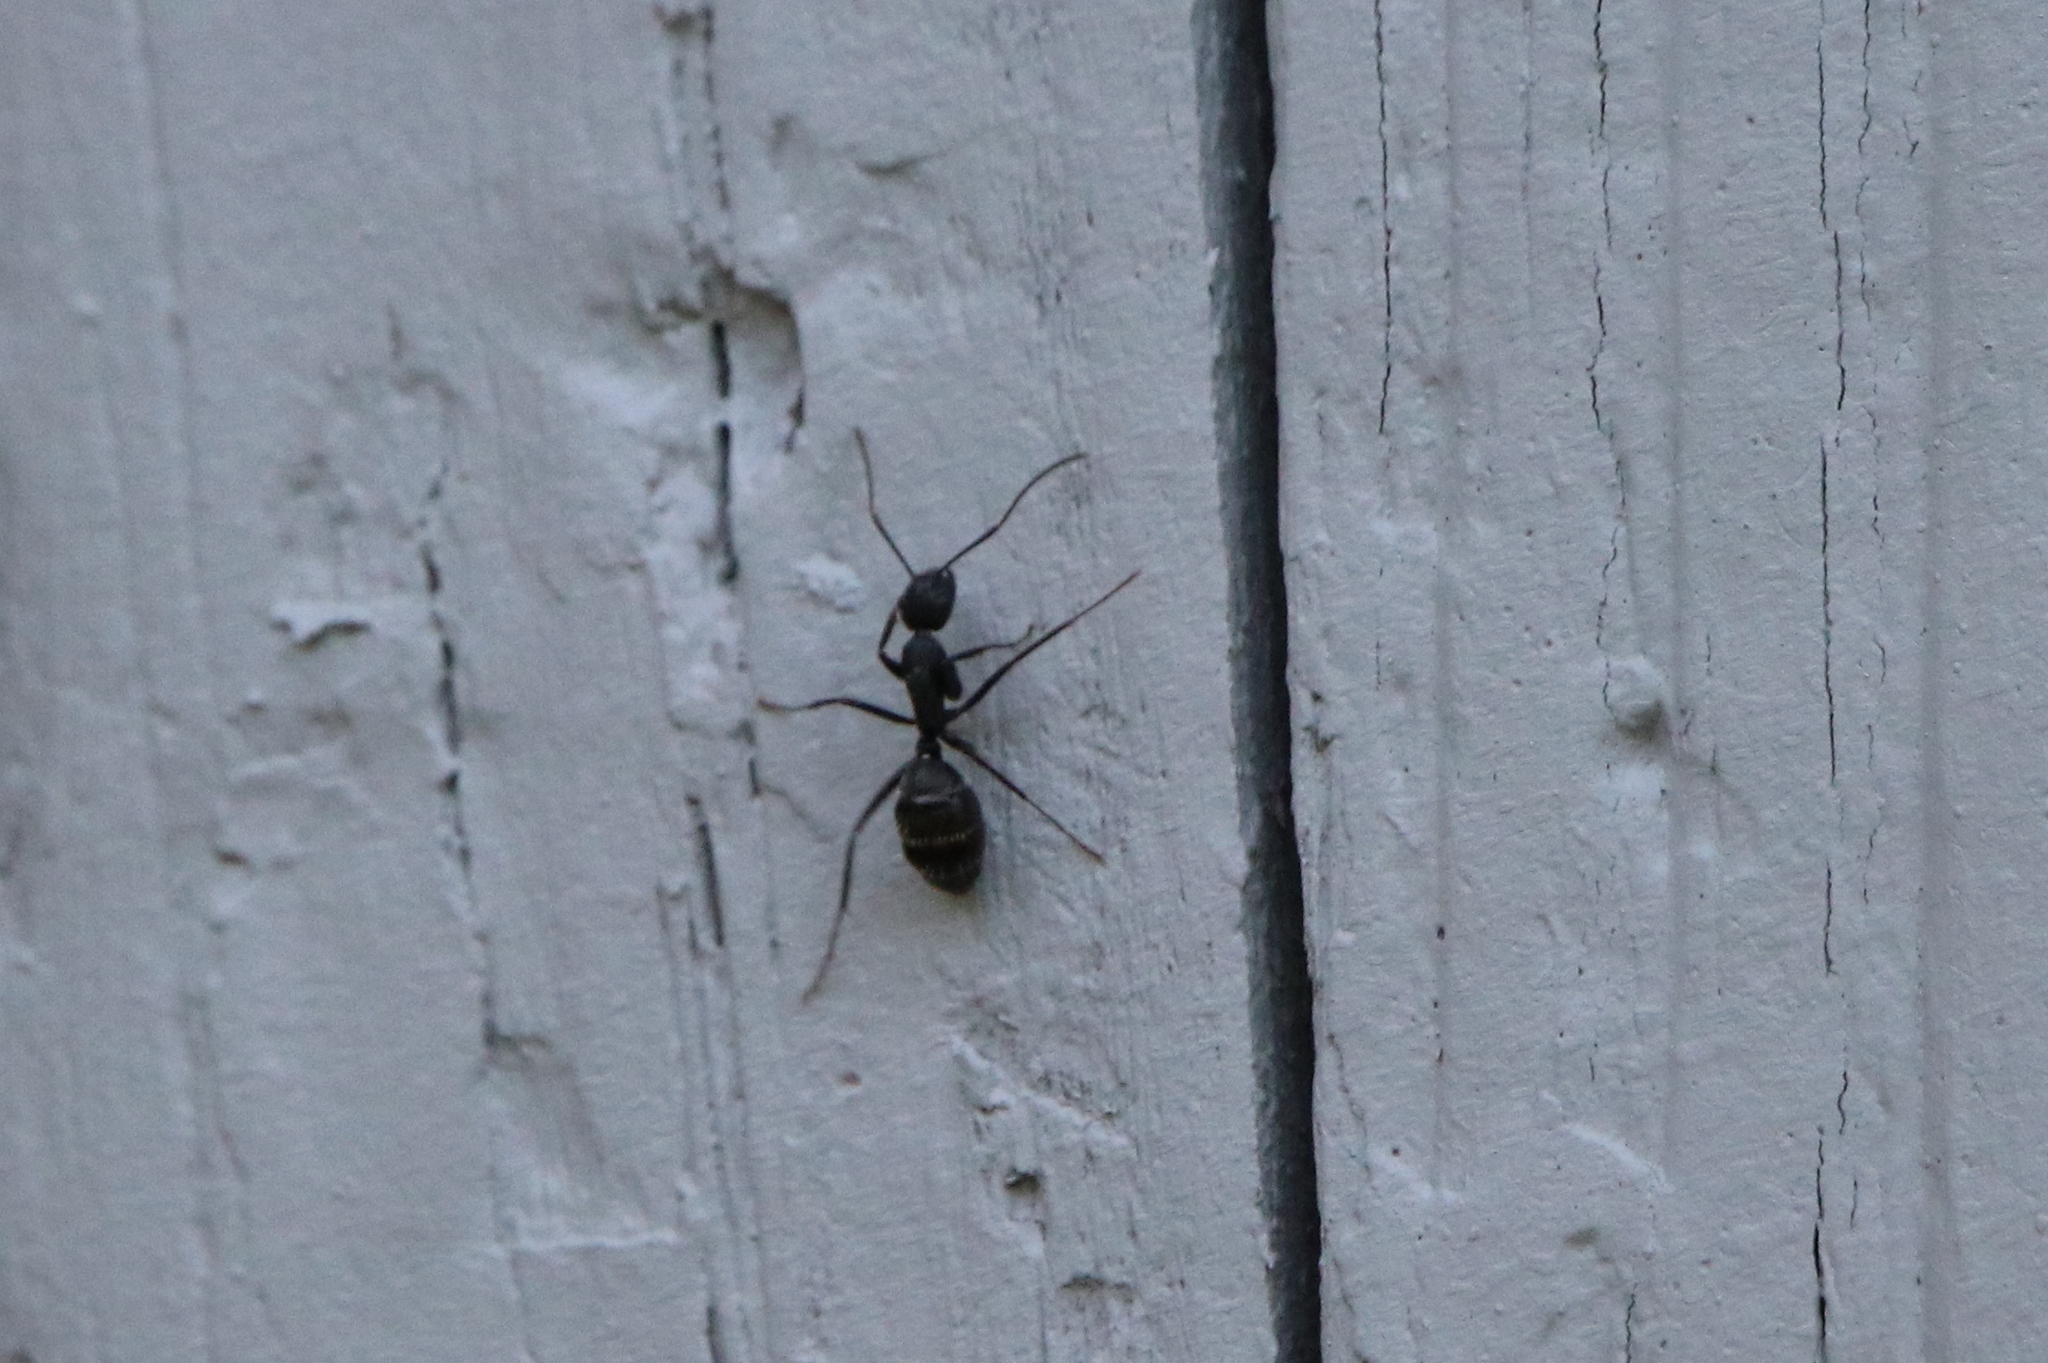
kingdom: Animalia
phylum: Arthropoda
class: Insecta
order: Hymenoptera
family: Formicidae
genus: Camponotus
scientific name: Camponotus pennsylvanicus
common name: Black carpenter ant
